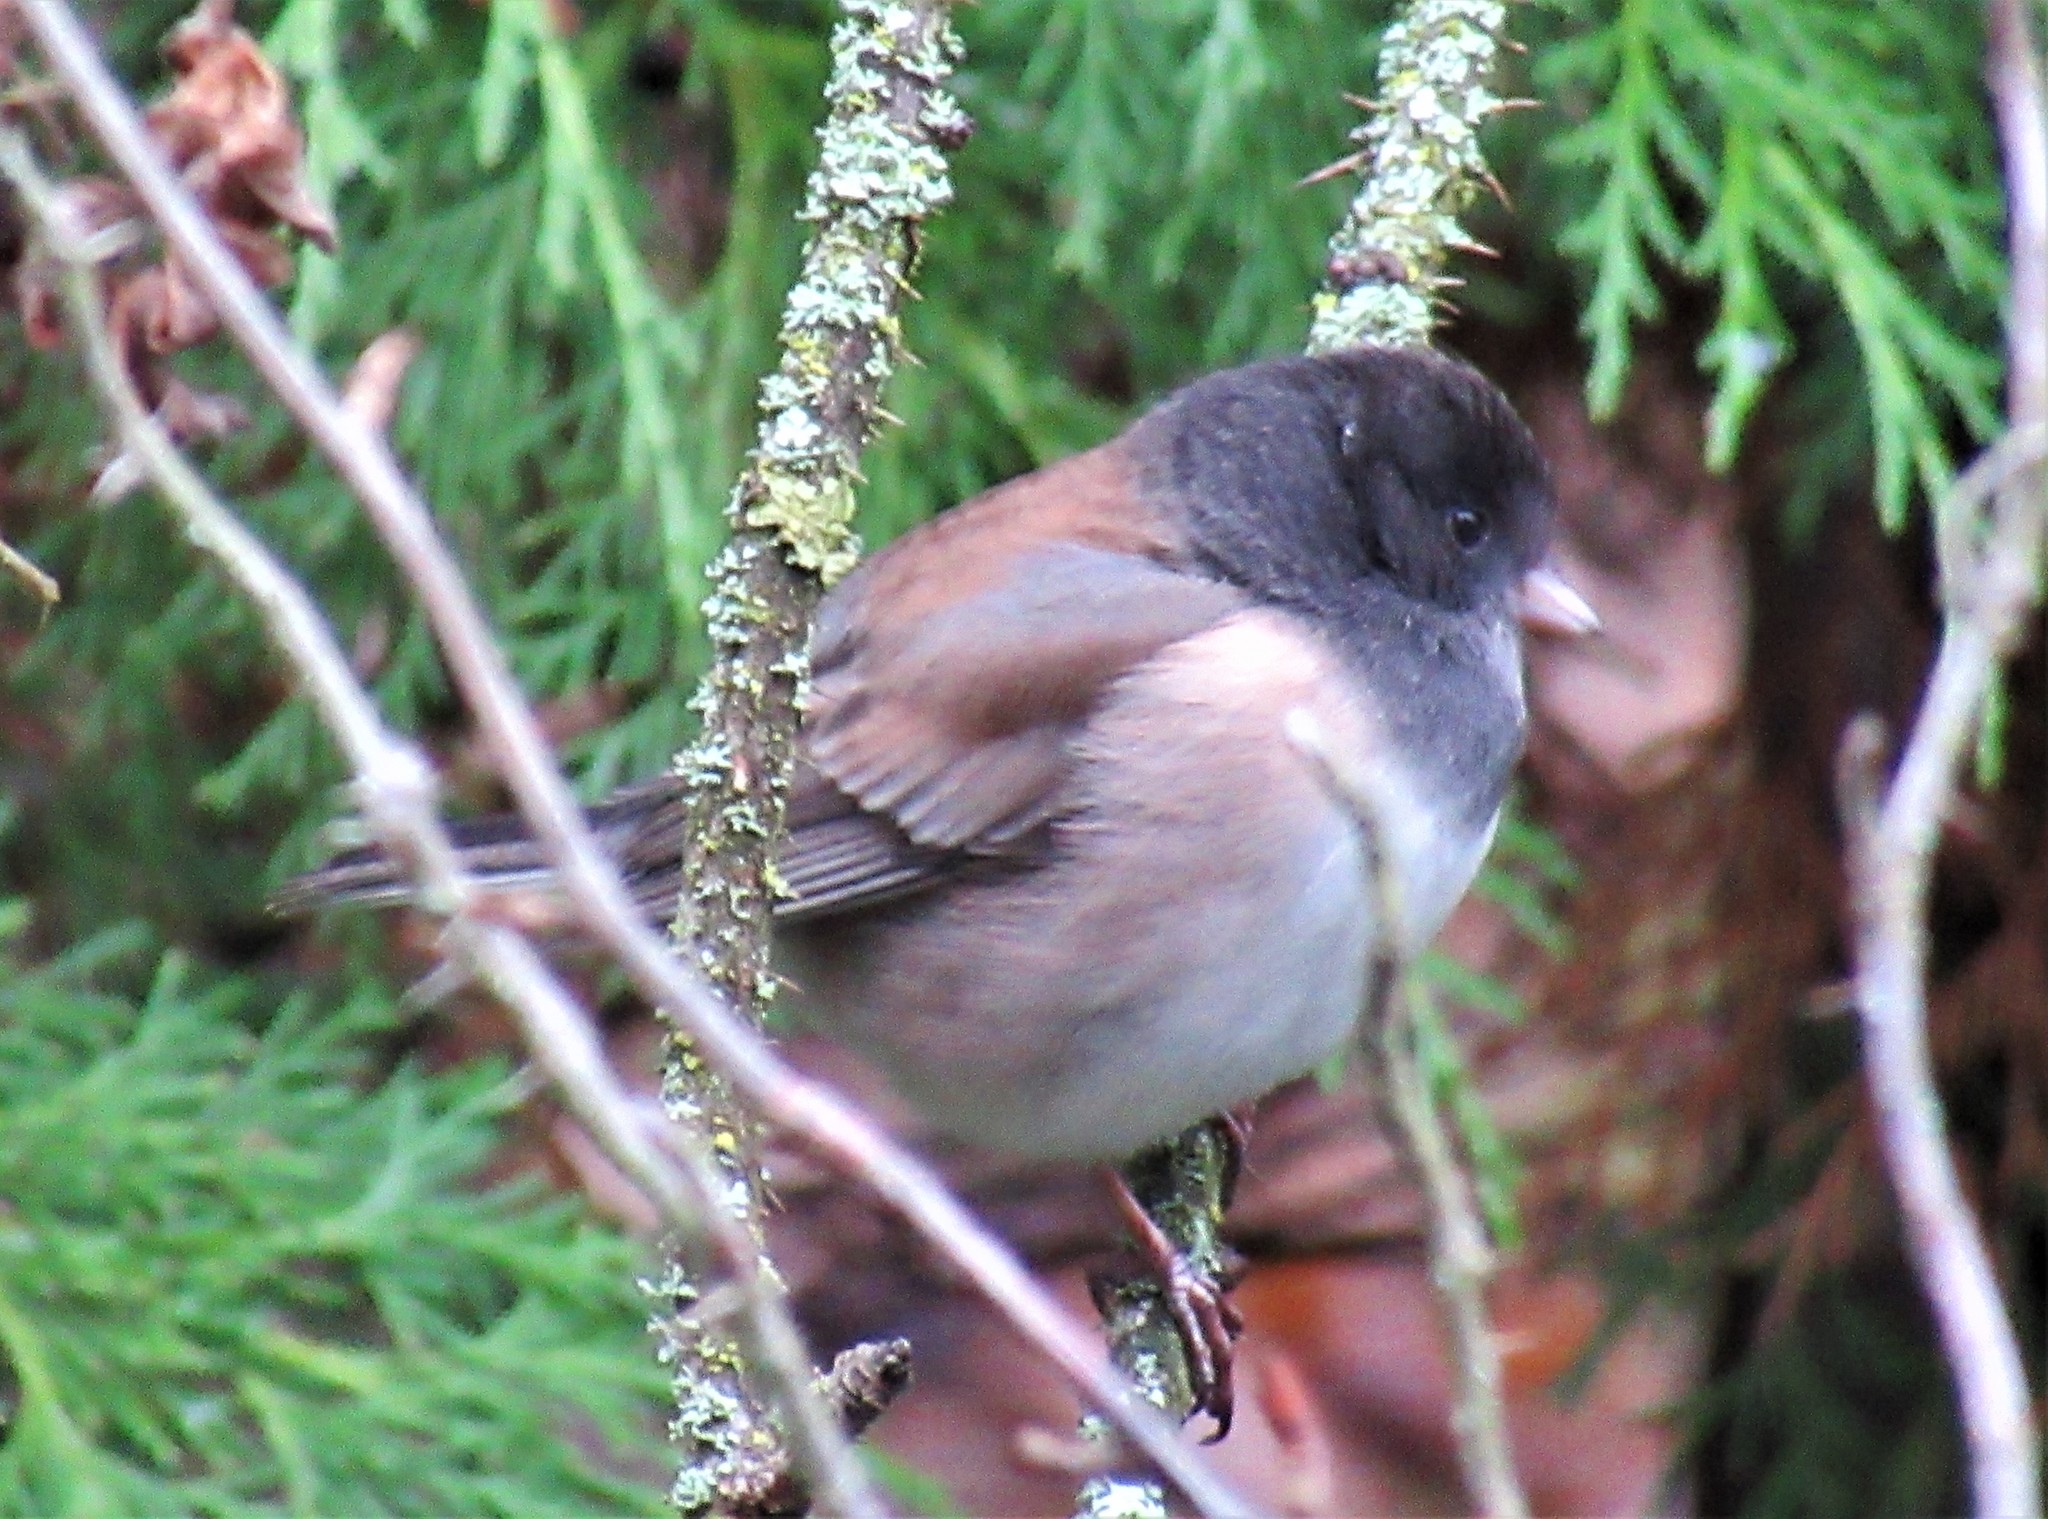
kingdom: Animalia
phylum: Chordata
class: Aves
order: Passeriformes
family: Passerellidae
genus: Junco
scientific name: Junco hyemalis
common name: Dark-eyed junco
